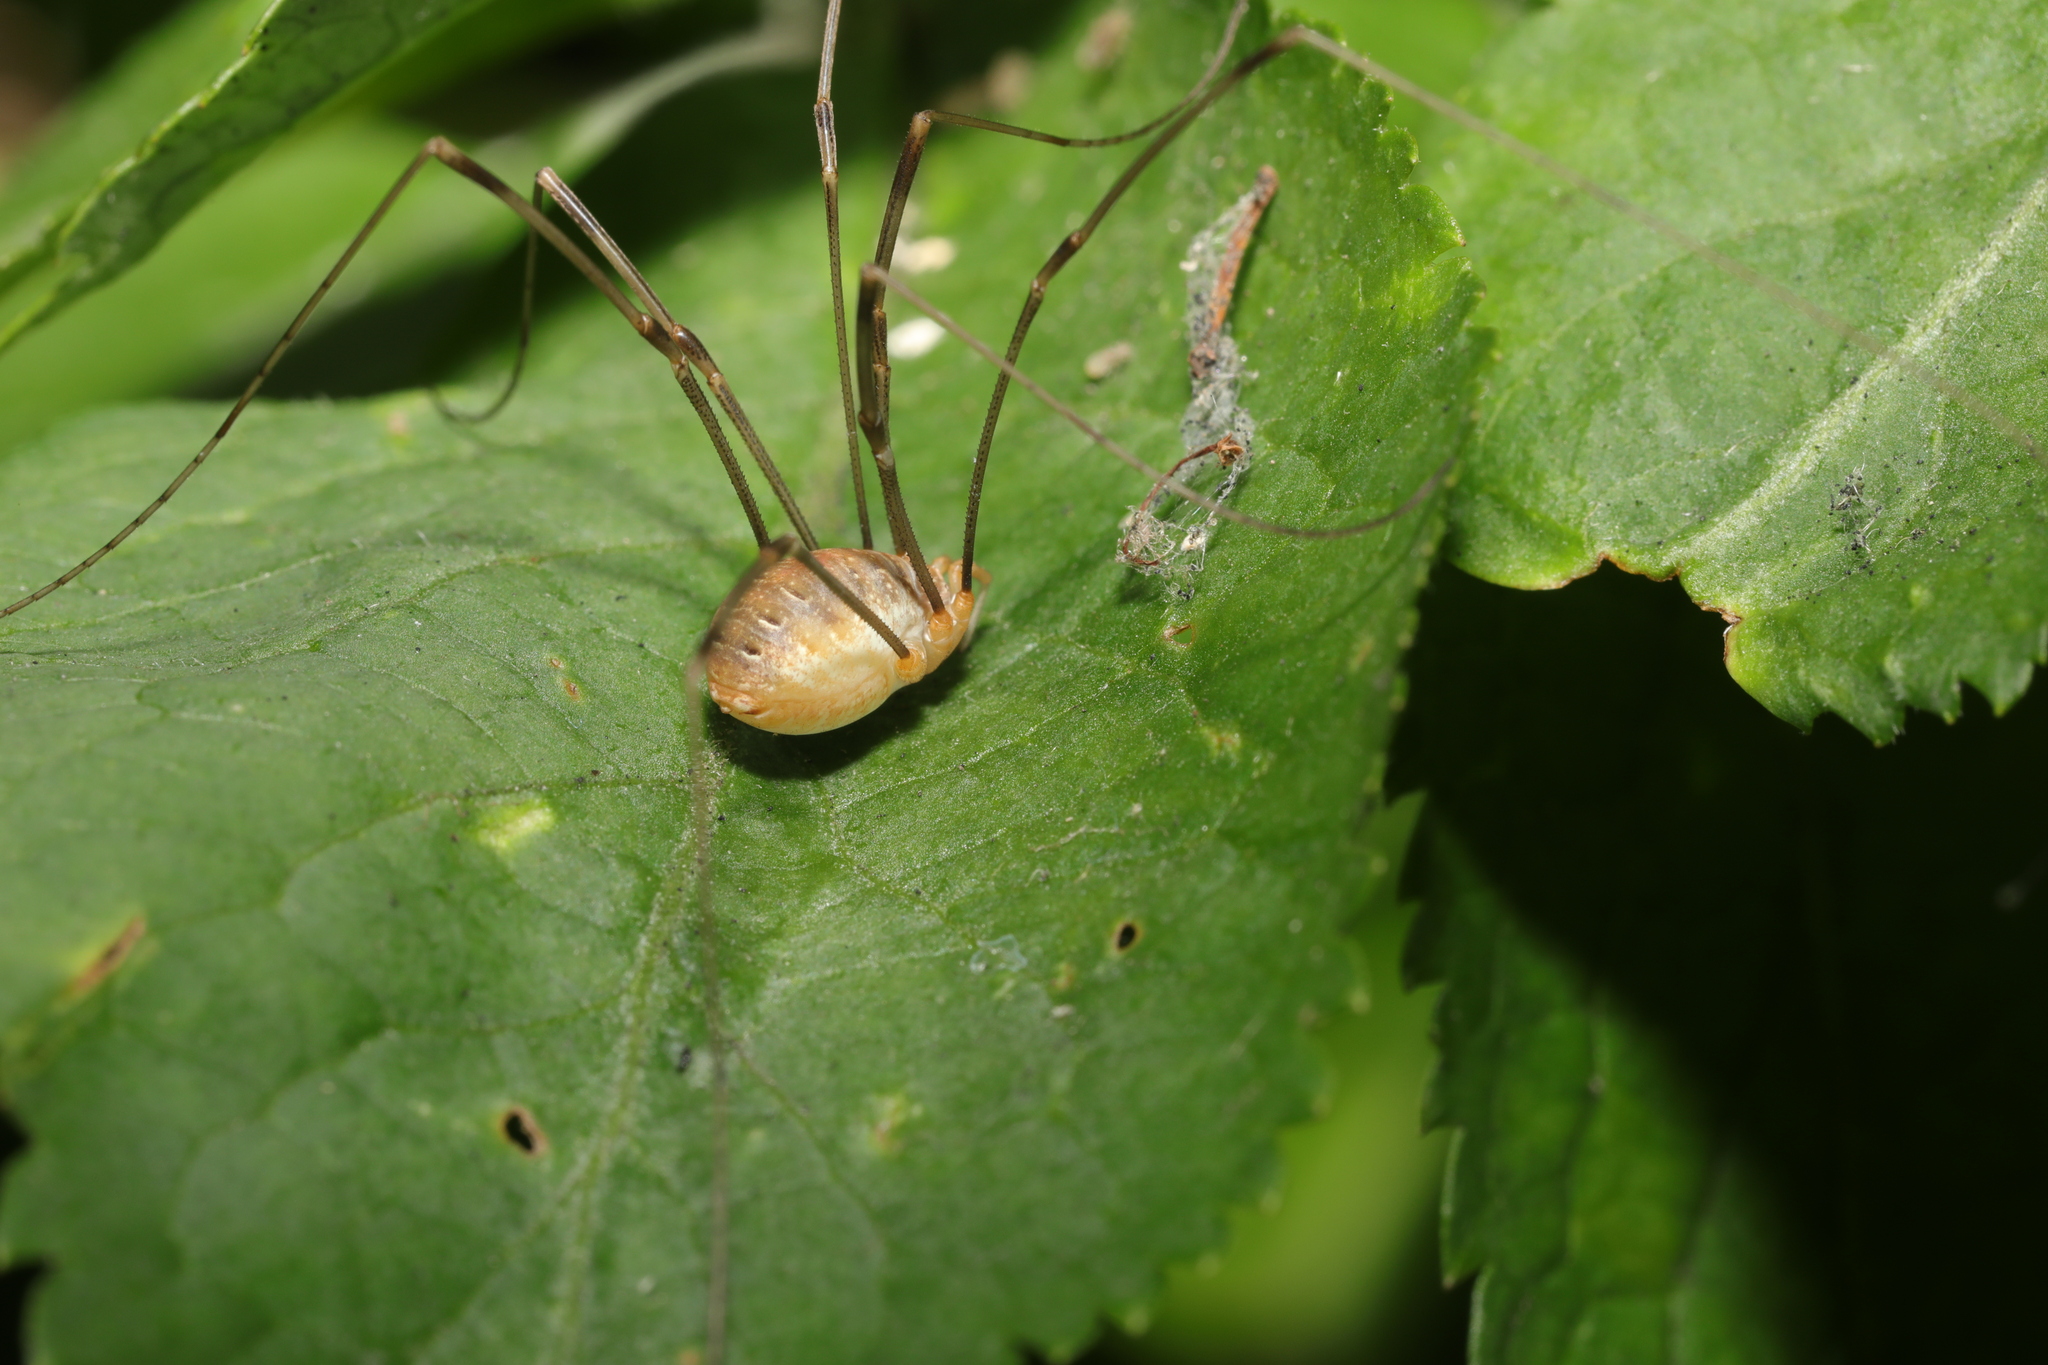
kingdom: Animalia
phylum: Arthropoda
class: Arachnida
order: Opiliones
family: Phalangiidae
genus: Opilio
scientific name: Opilio canestrinii
